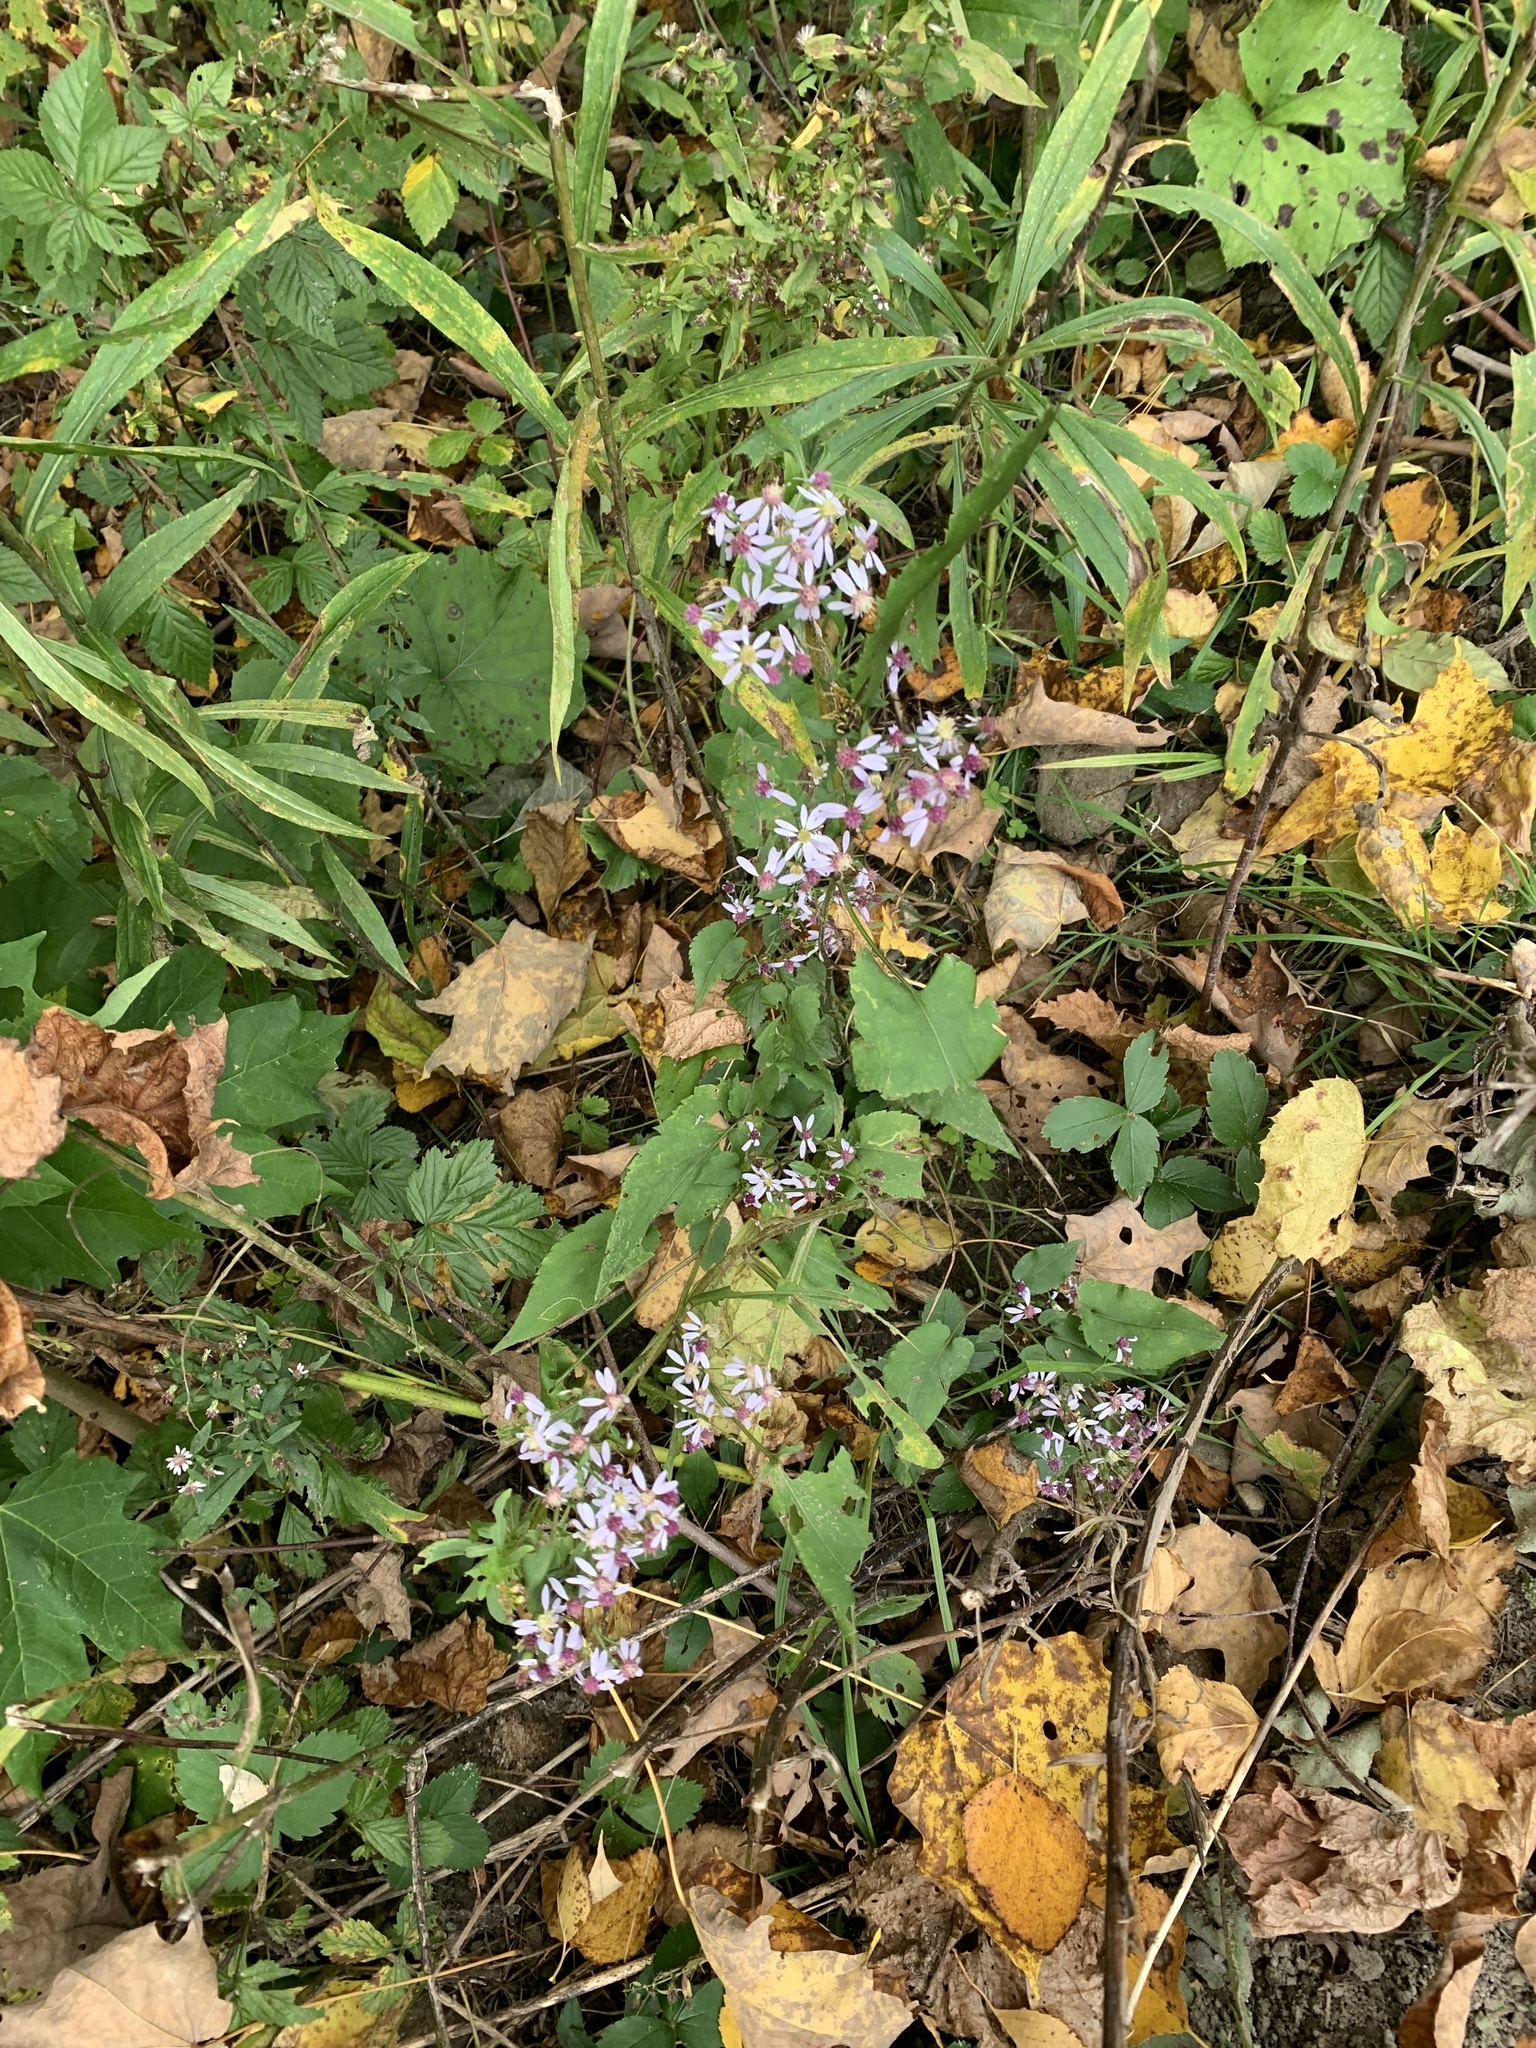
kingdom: Plantae
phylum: Tracheophyta
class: Magnoliopsida
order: Asterales
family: Asteraceae
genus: Symphyotrichum
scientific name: Symphyotrichum cordifolium
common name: Beeweed
